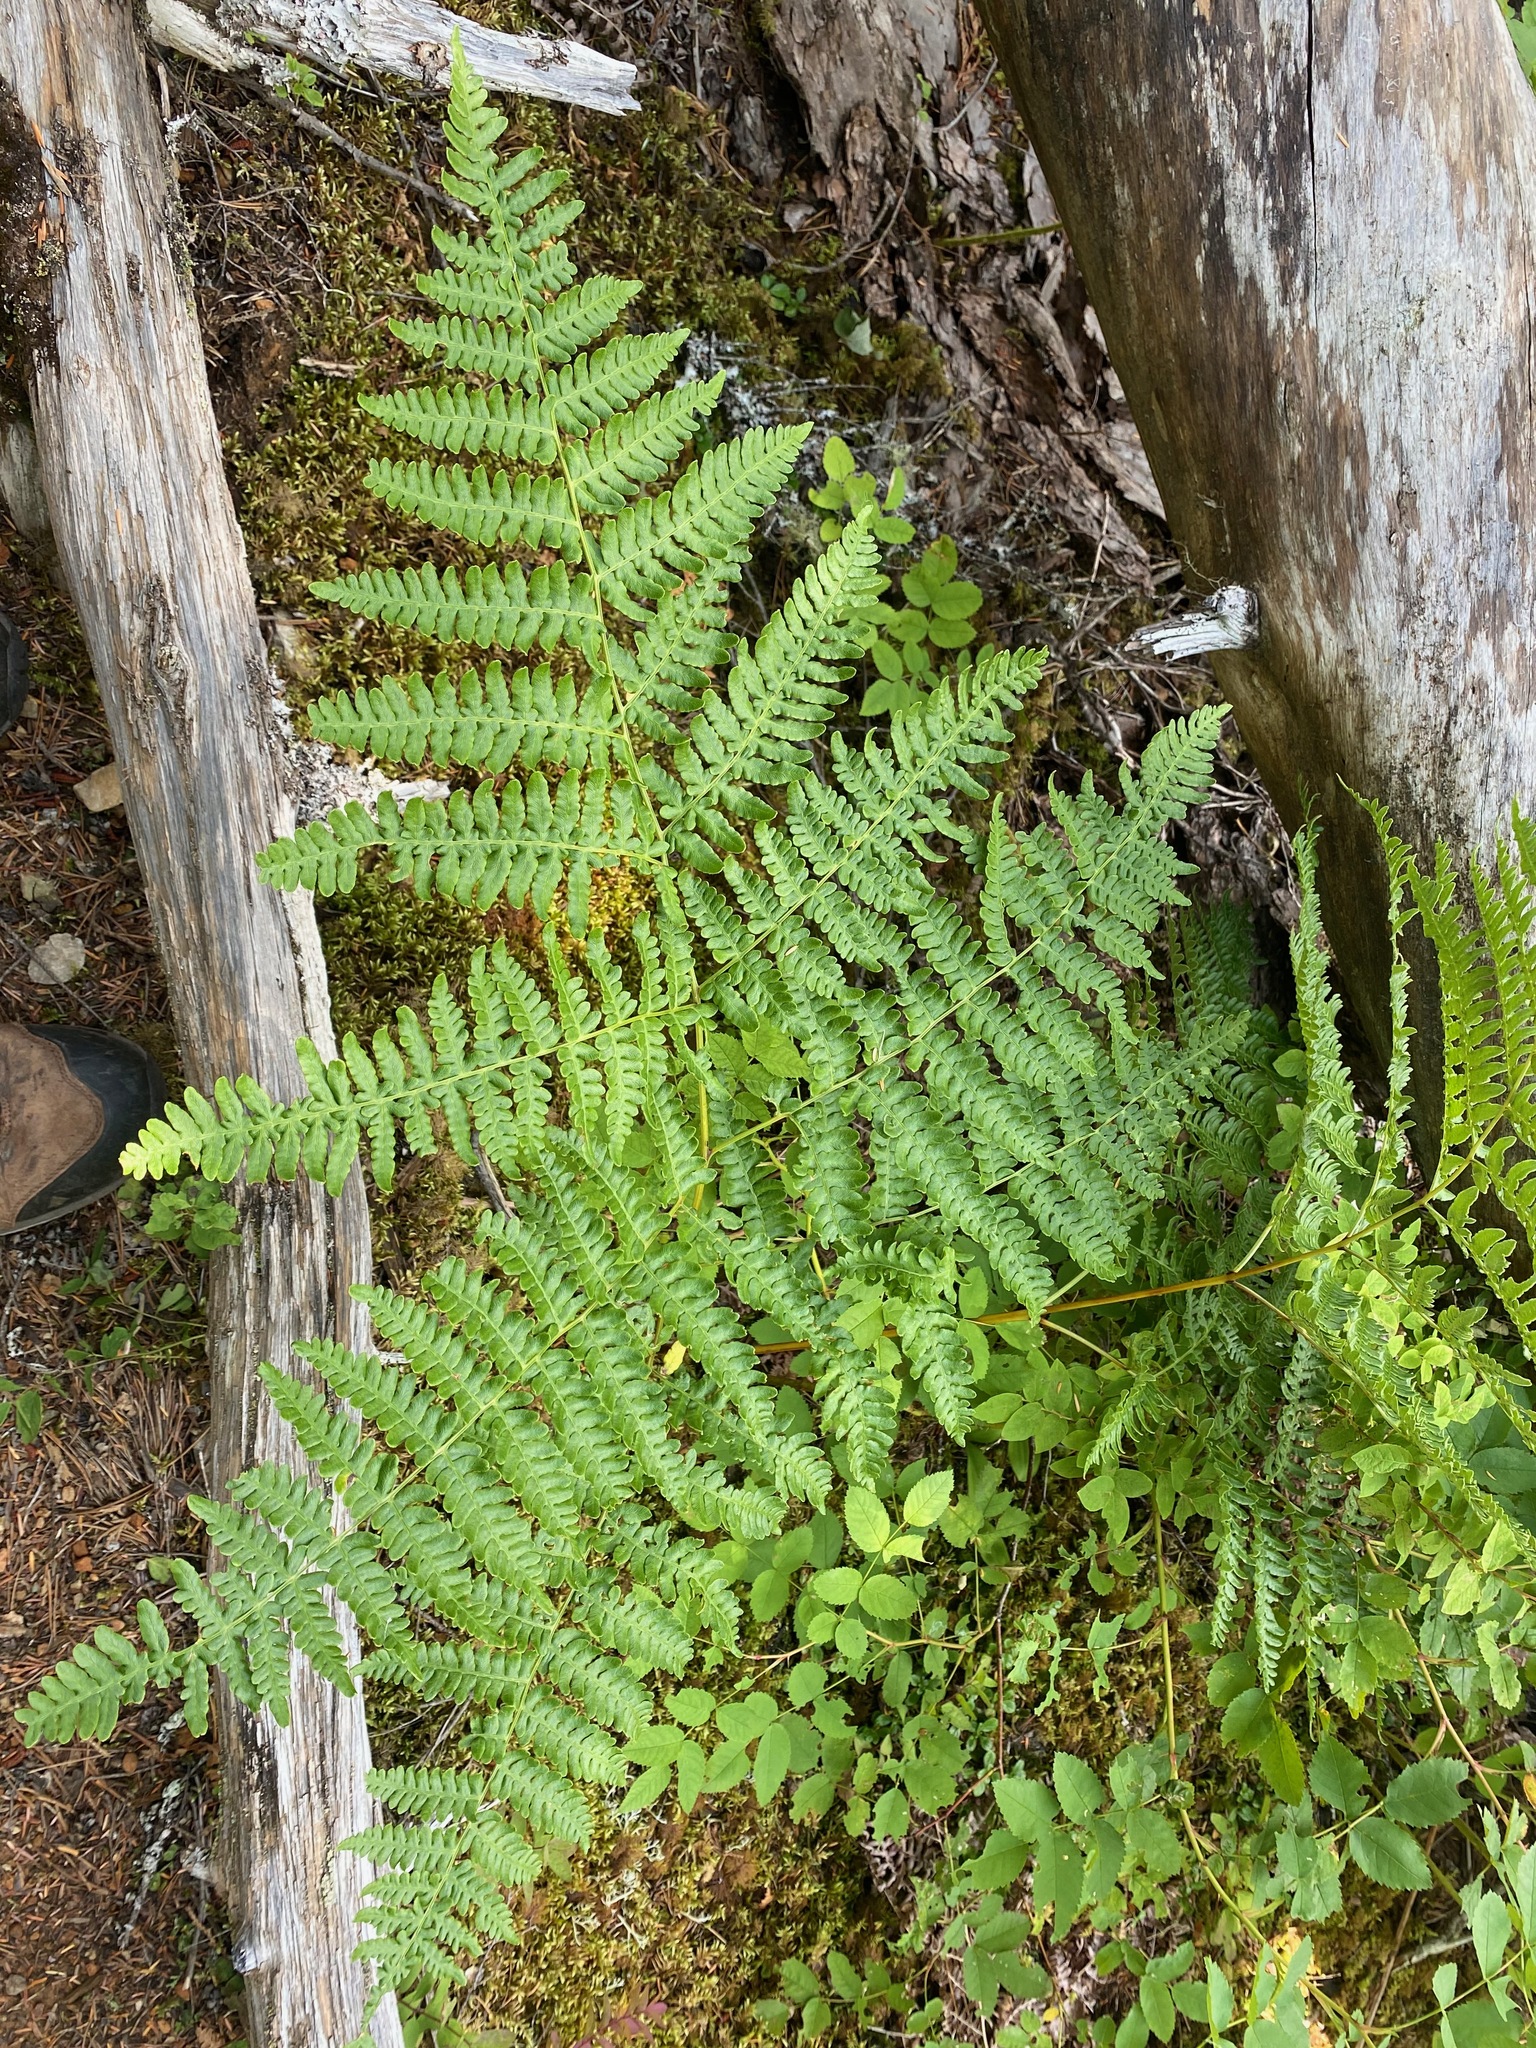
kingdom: Plantae
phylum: Tracheophyta
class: Polypodiopsida
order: Polypodiales
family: Dennstaedtiaceae
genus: Pteridium
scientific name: Pteridium aquilinum
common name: Bracken
